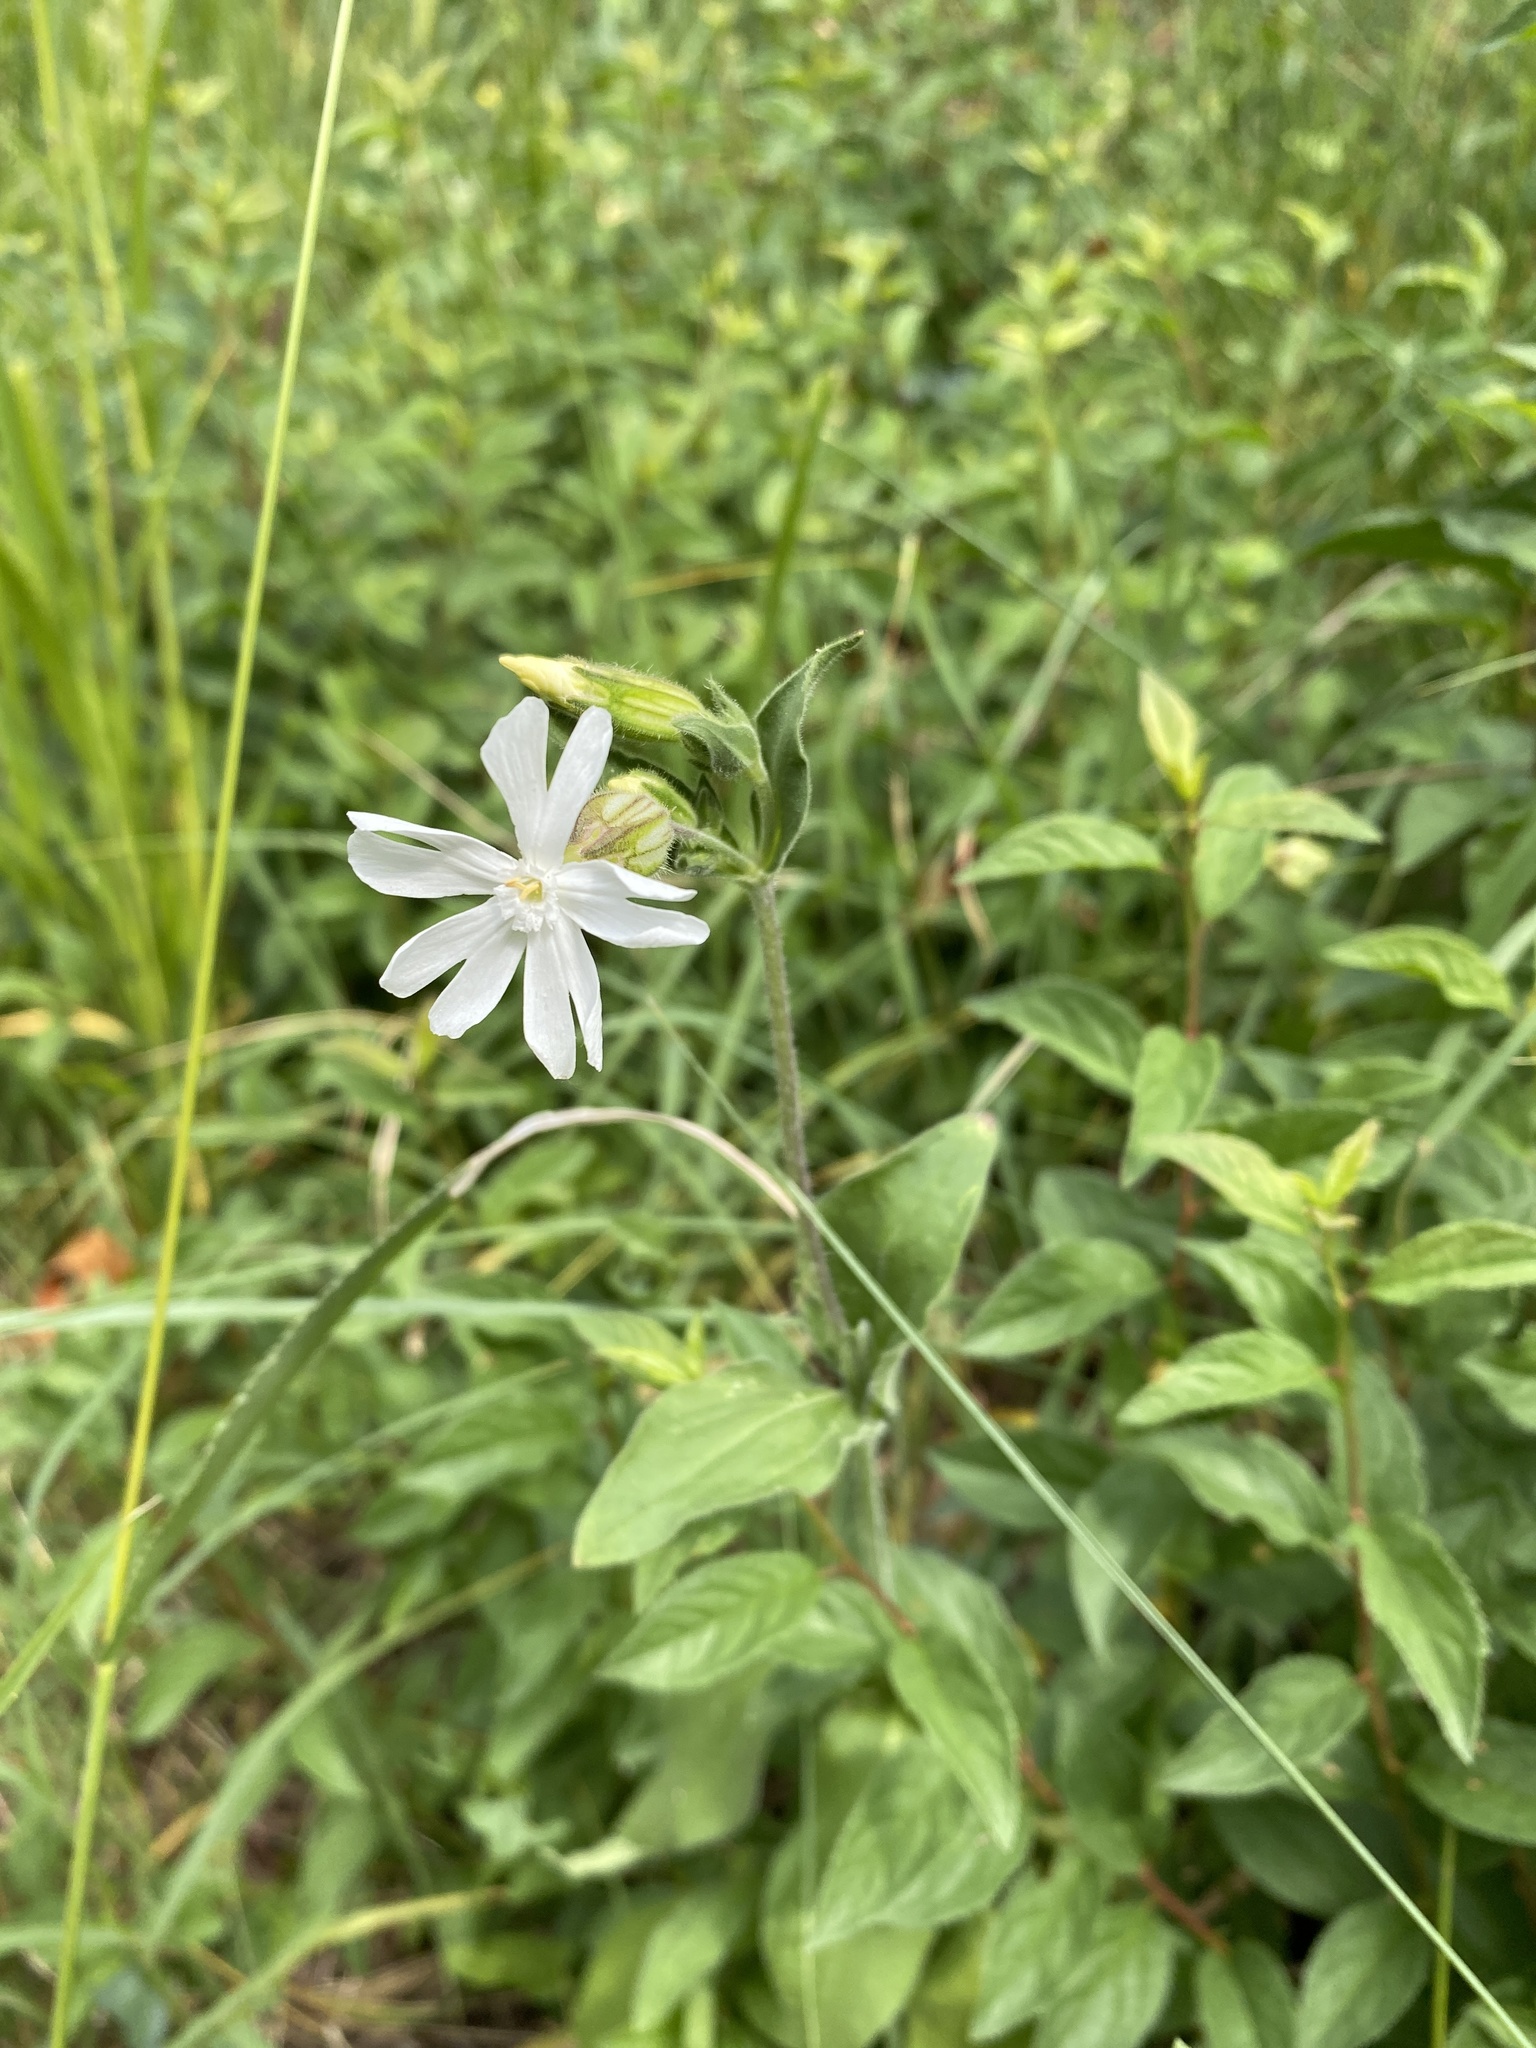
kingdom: Plantae
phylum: Tracheophyta
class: Magnoliopsida
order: Caryophyllales
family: Caryophyllaceae
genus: Silene
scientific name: Silene latifolia
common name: White campion
